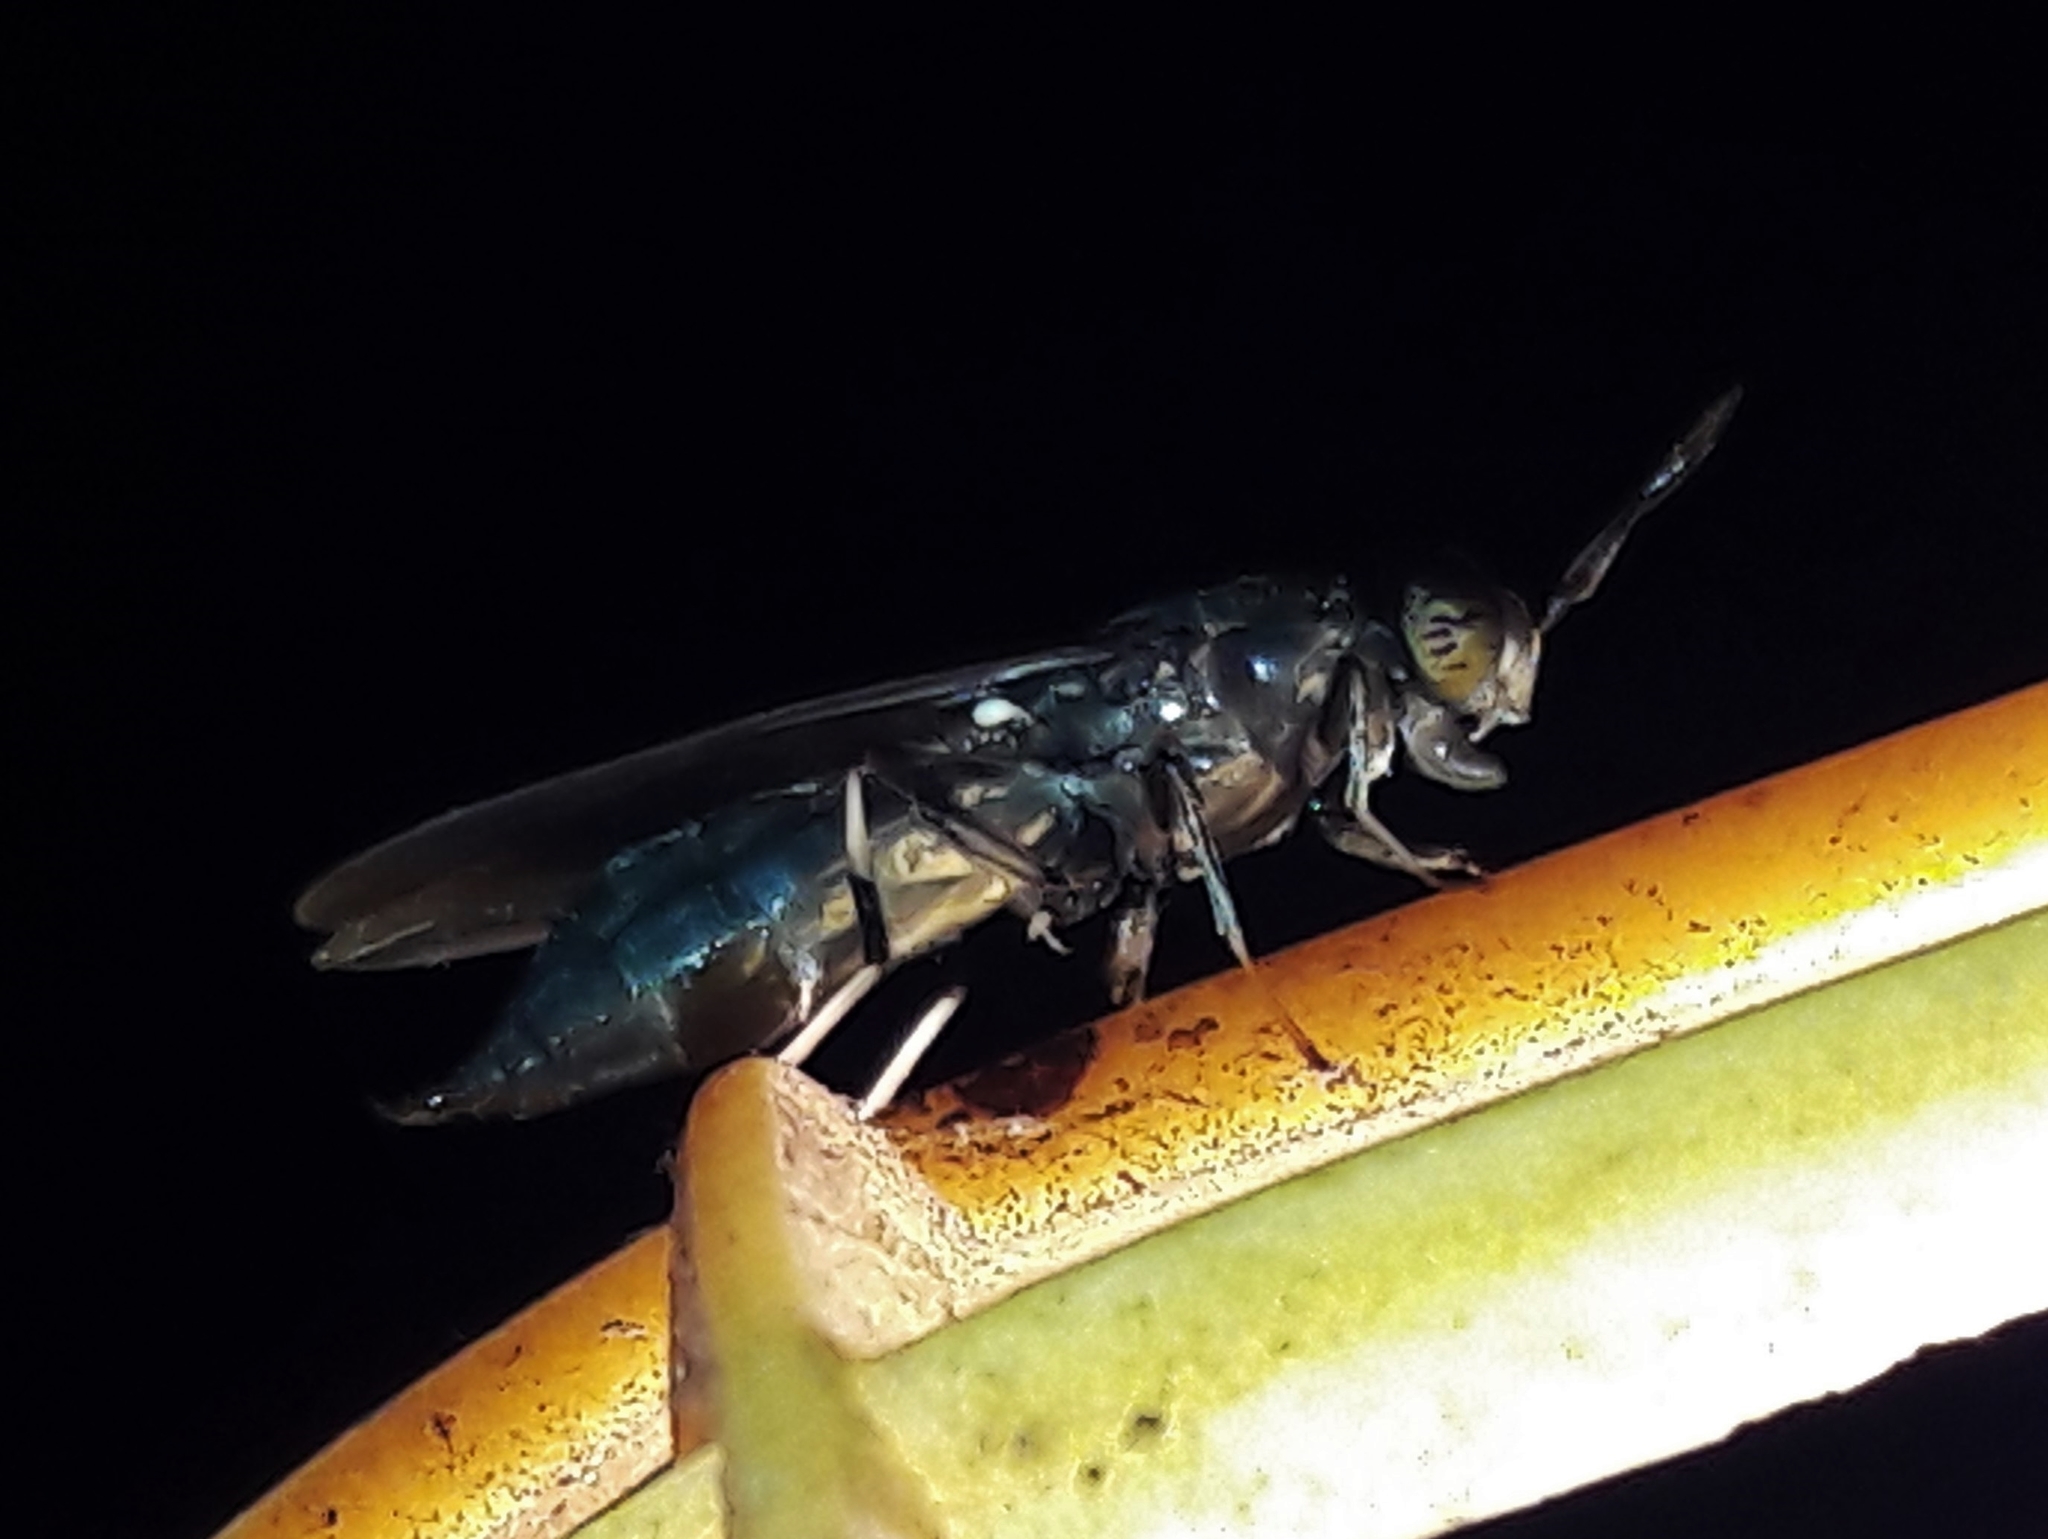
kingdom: Animalia
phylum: Arthropoda
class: Insecta
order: Diptera
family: Stratiomyidae
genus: Hermetia
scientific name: Hermetia illucens
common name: Black soldier fly
